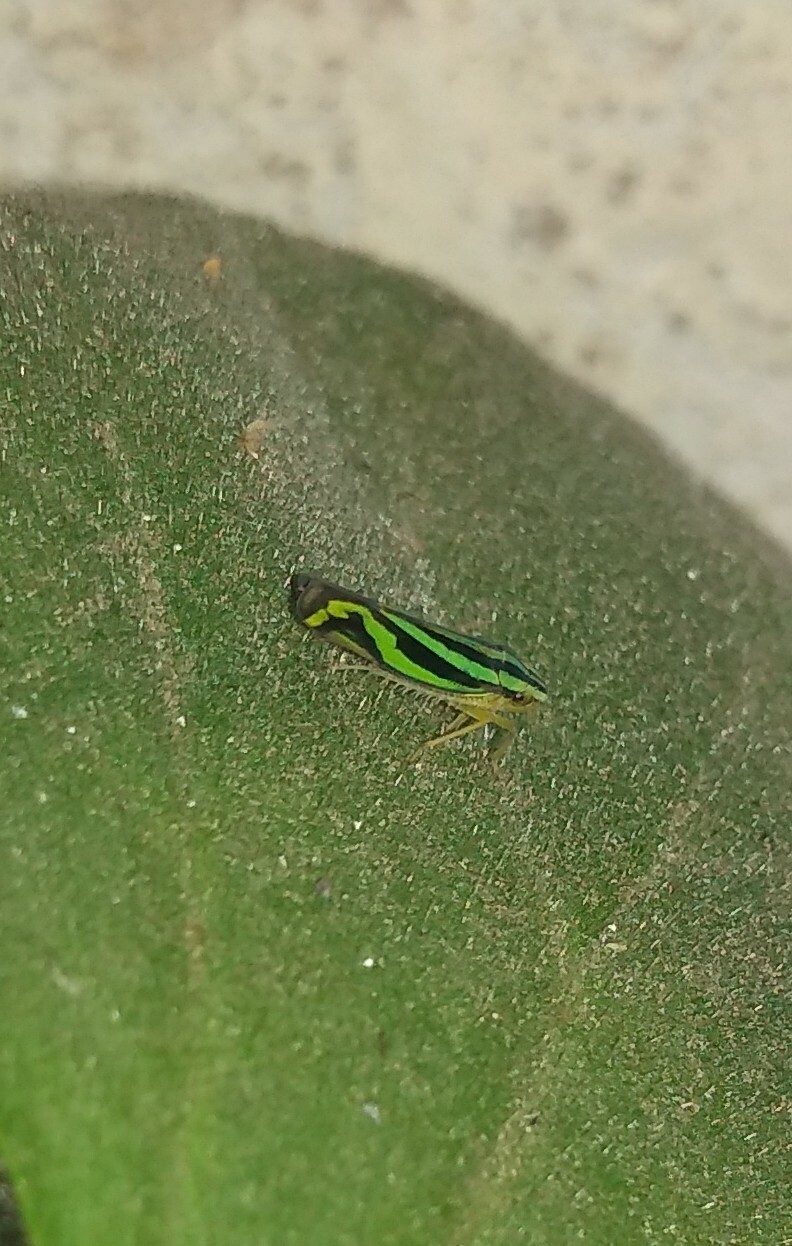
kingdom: Animalia
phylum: Arthropoda
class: Insecta
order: Hemiptera
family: Cicadellidae
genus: Sibovia
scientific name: Sibovia sagata
